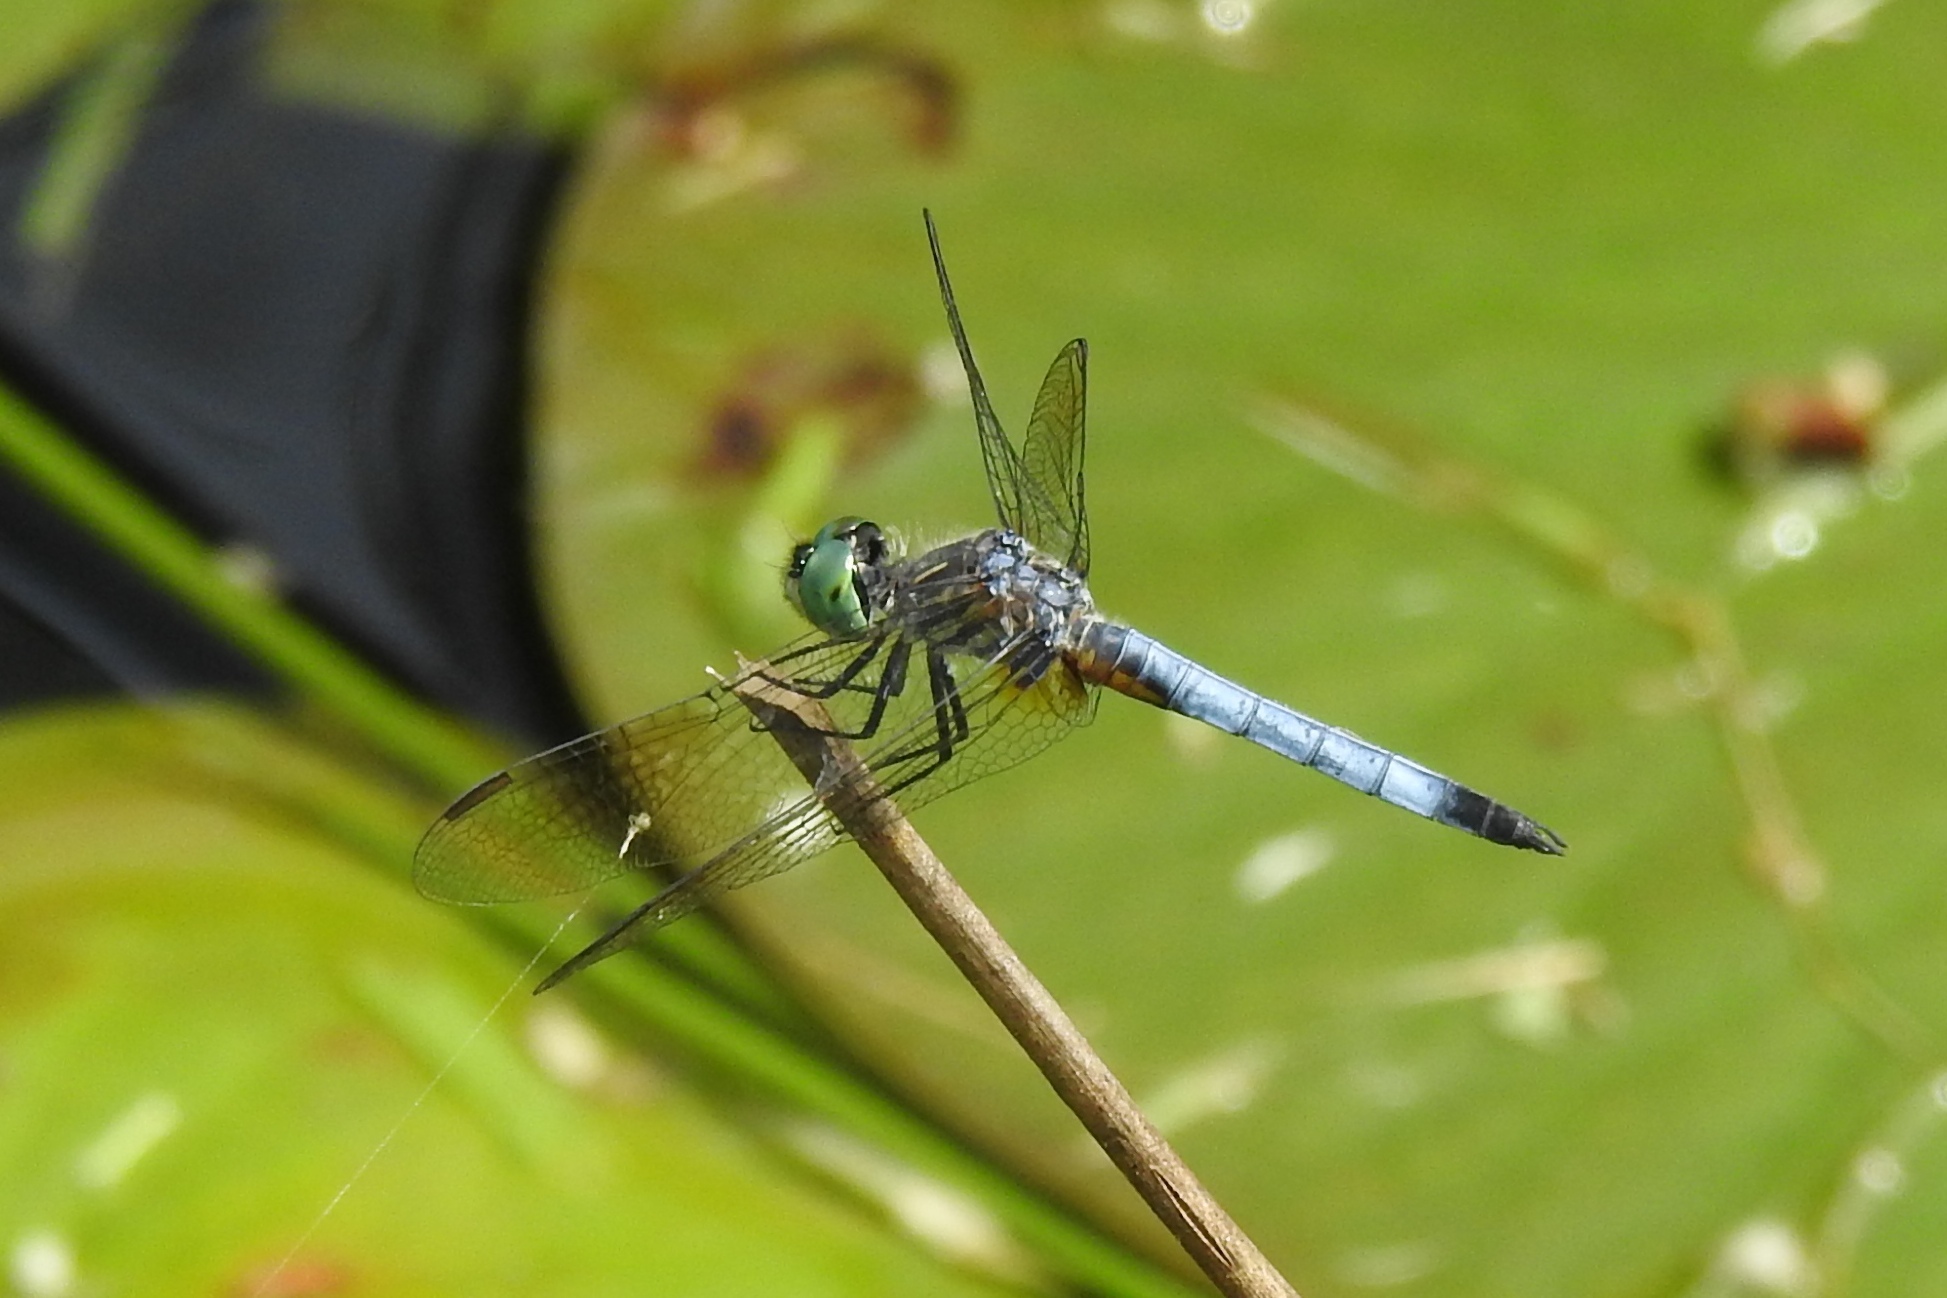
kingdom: Animalia
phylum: Arthropoda
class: Insecta
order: Odonata
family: Libellulidae
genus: Pachydiplax
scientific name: Pachydiplax longipennis
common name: Blue dasher
